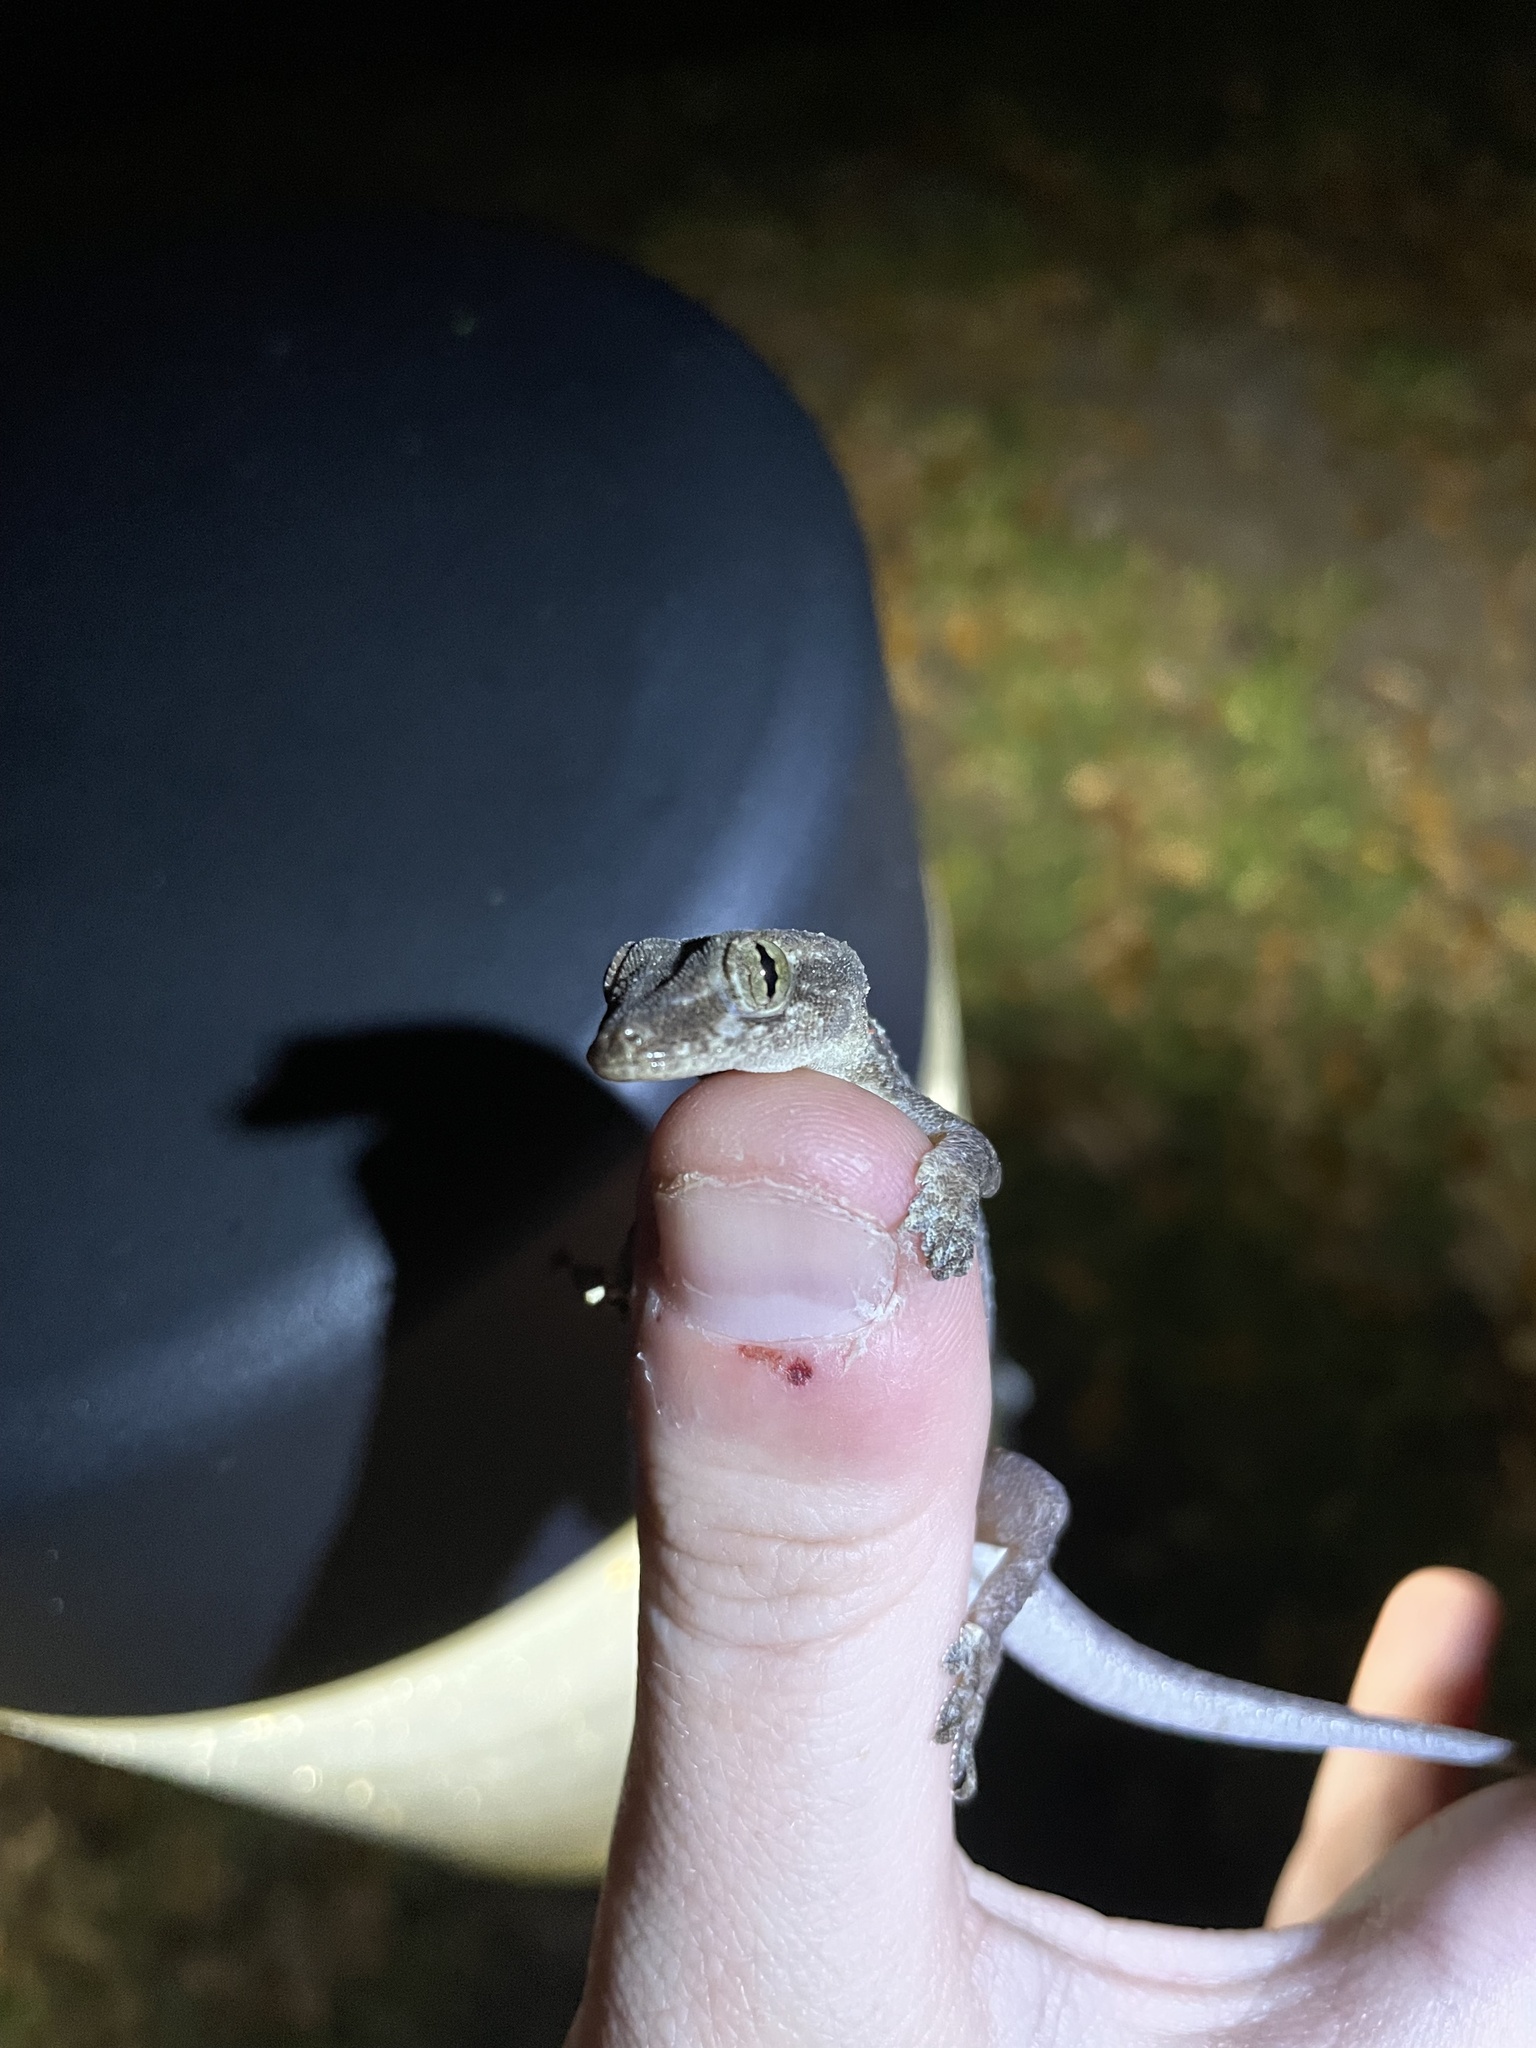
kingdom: Animalia
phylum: Chordata
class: Squamata
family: Gekkonidae
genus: Hemidactylus
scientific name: Hemidactylus mabouia
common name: House gecko
